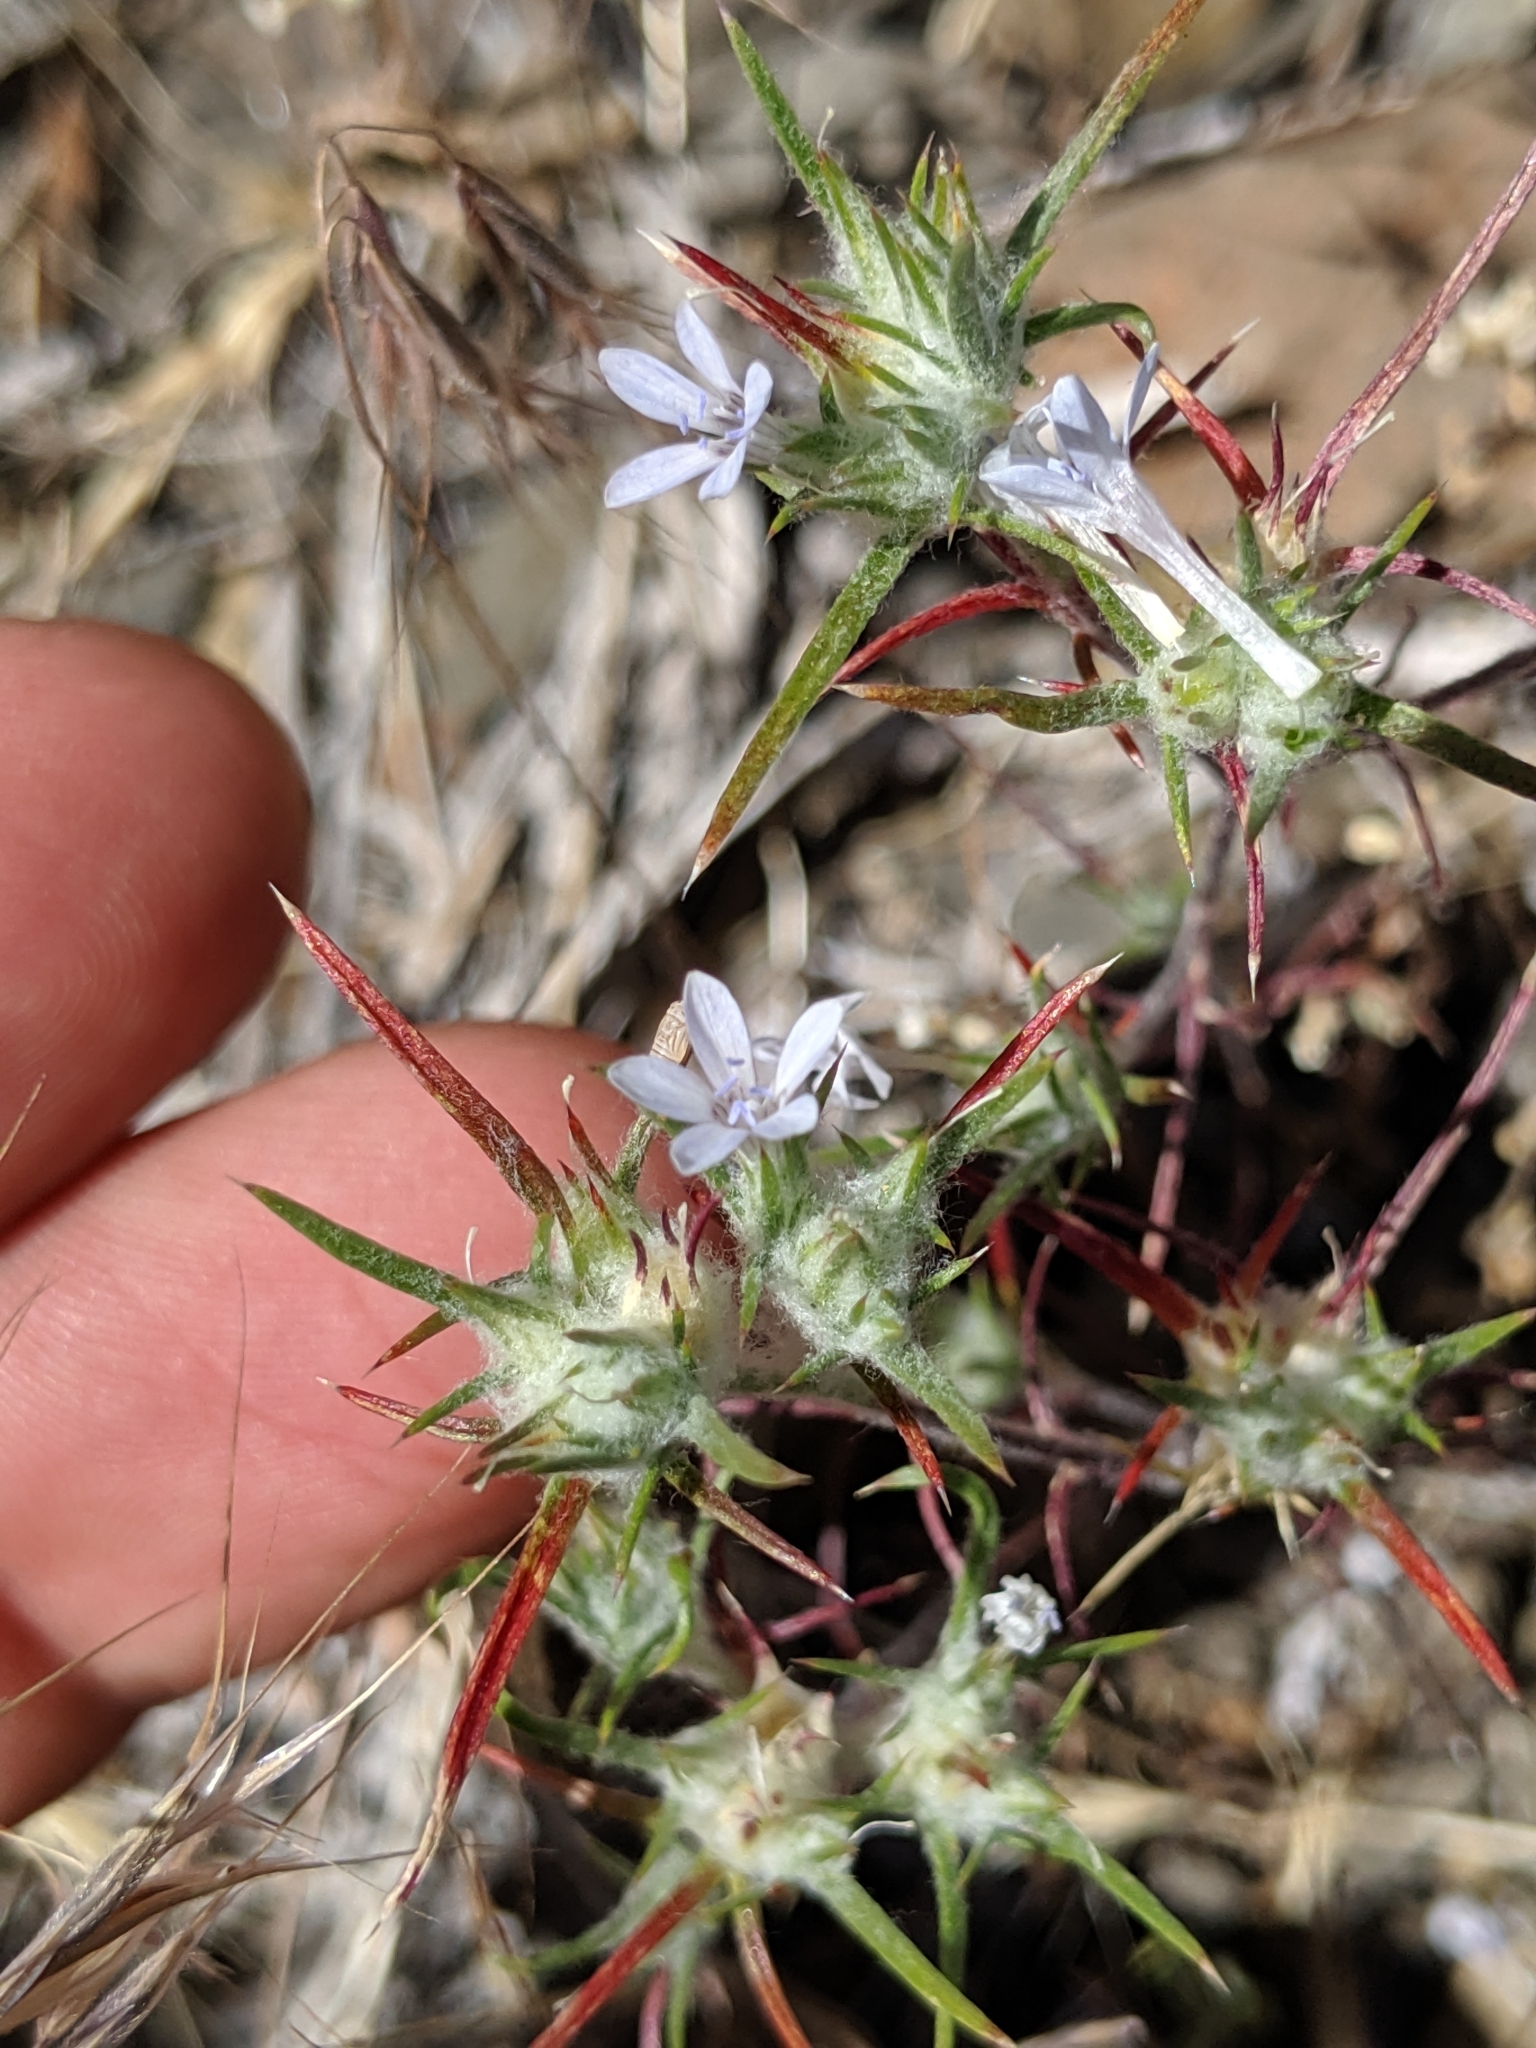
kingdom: Plantae
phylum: Tracheophyta
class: Magnoliopsida
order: Ericales
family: Polemoniaceae
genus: Eriastrum
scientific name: Eriastrum wilcoxii
